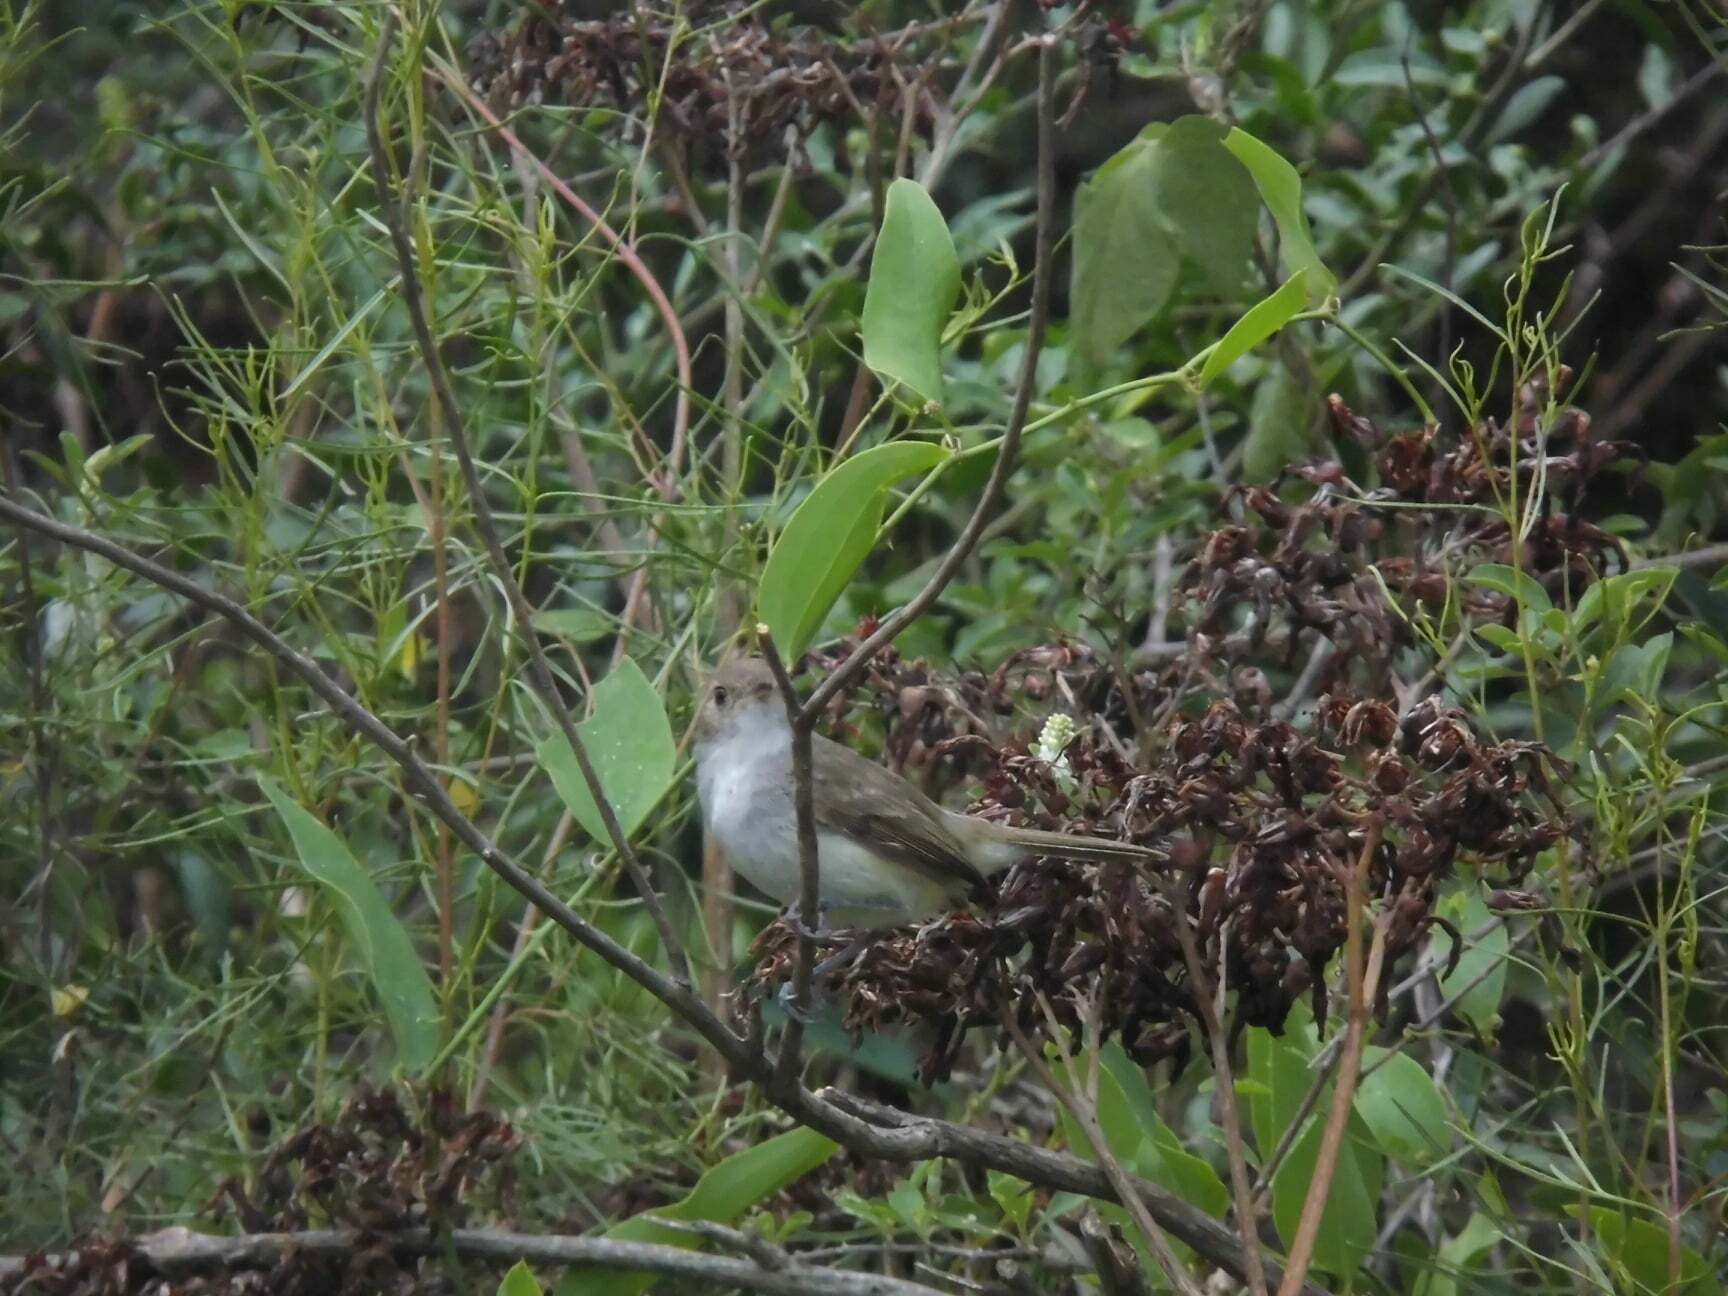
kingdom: Animalia
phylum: Chordata
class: Aves
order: Passeriformes
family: Tyrannidae
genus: Euscarthmus
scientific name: Euscarthmus meloryphus
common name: Tawny-crowned pygmy tyrant
